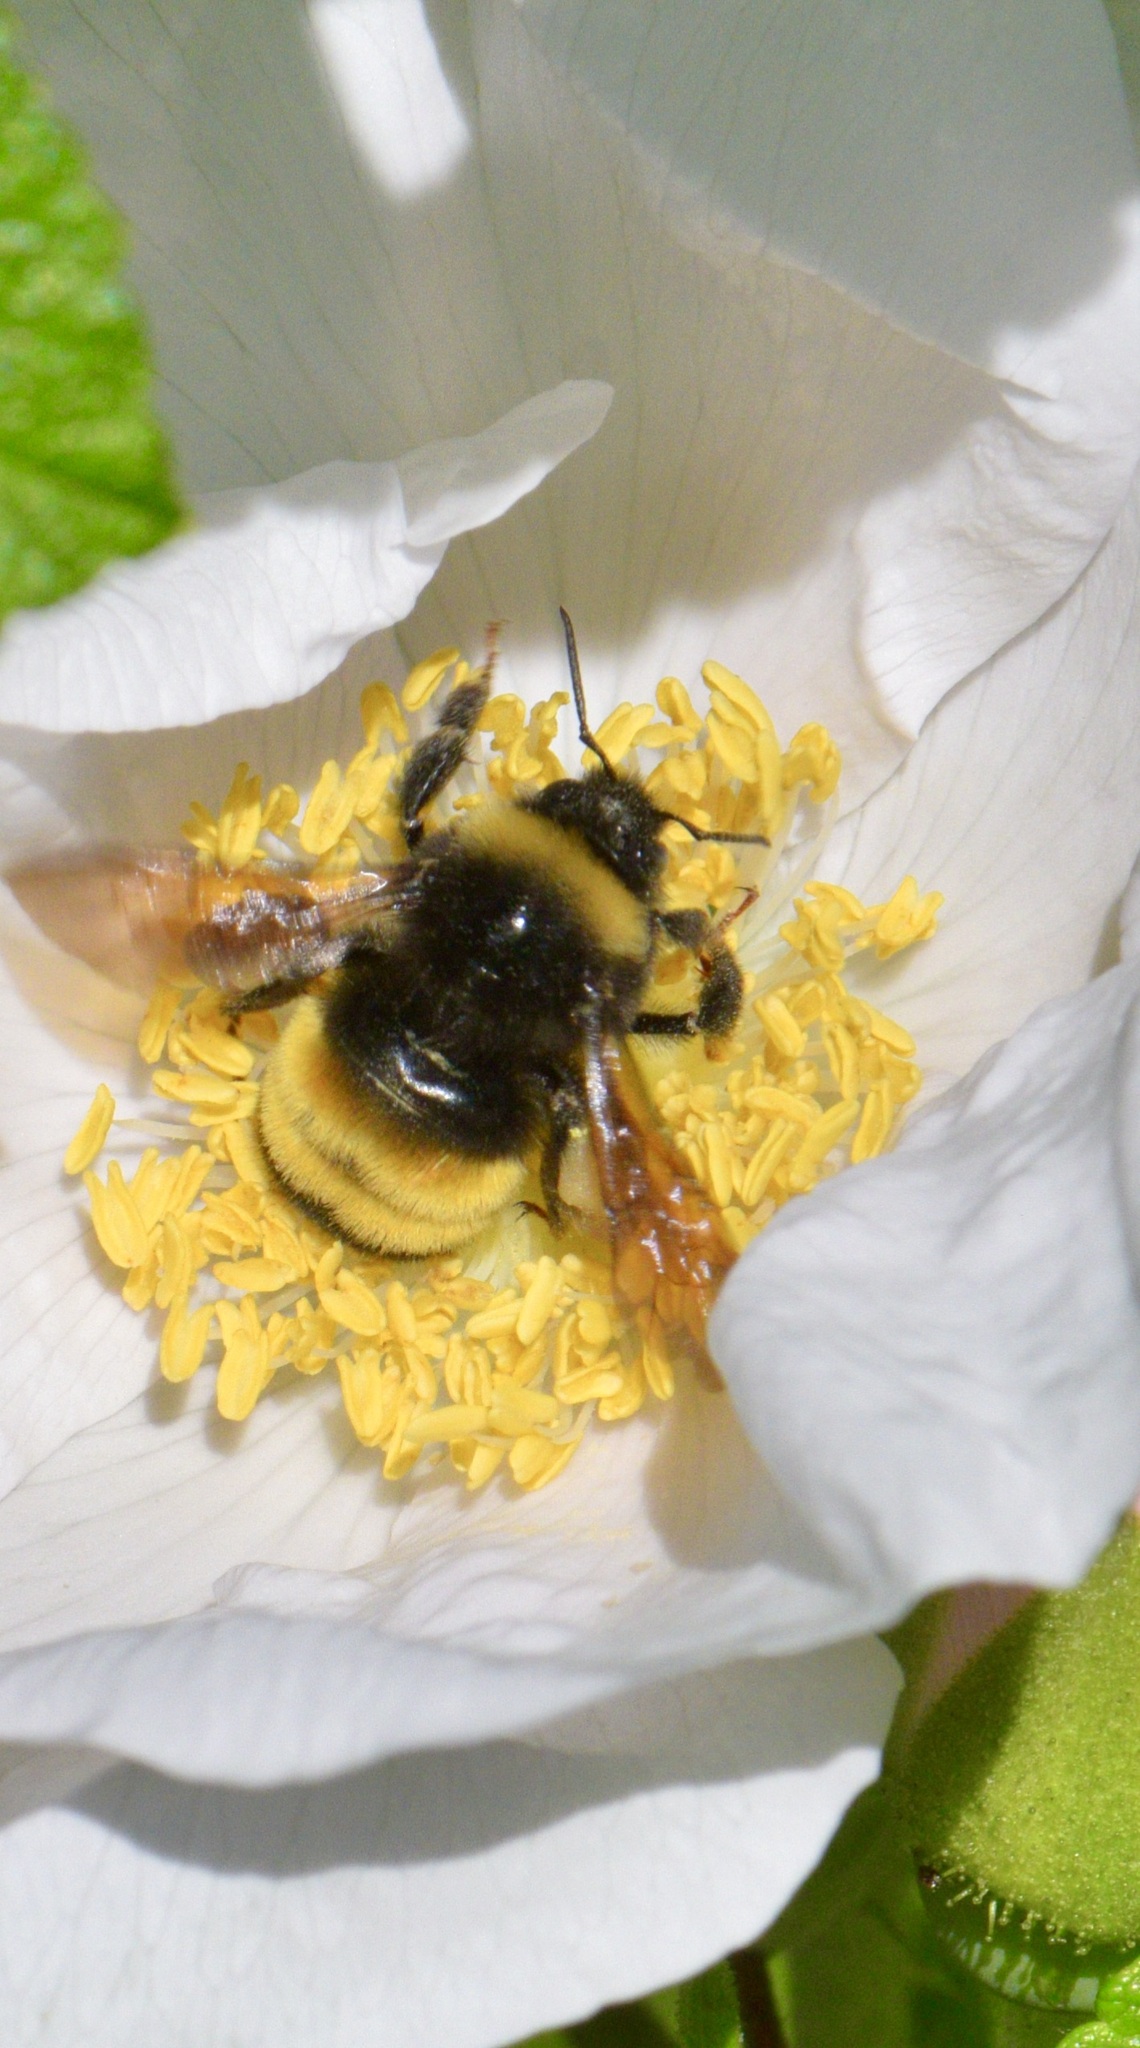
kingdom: Animalia
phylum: Arthropoda
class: Insecta
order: Hymenoptera
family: Apidae
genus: Bombus
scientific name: Bombus terricola
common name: Yellow-banded bumble bee
